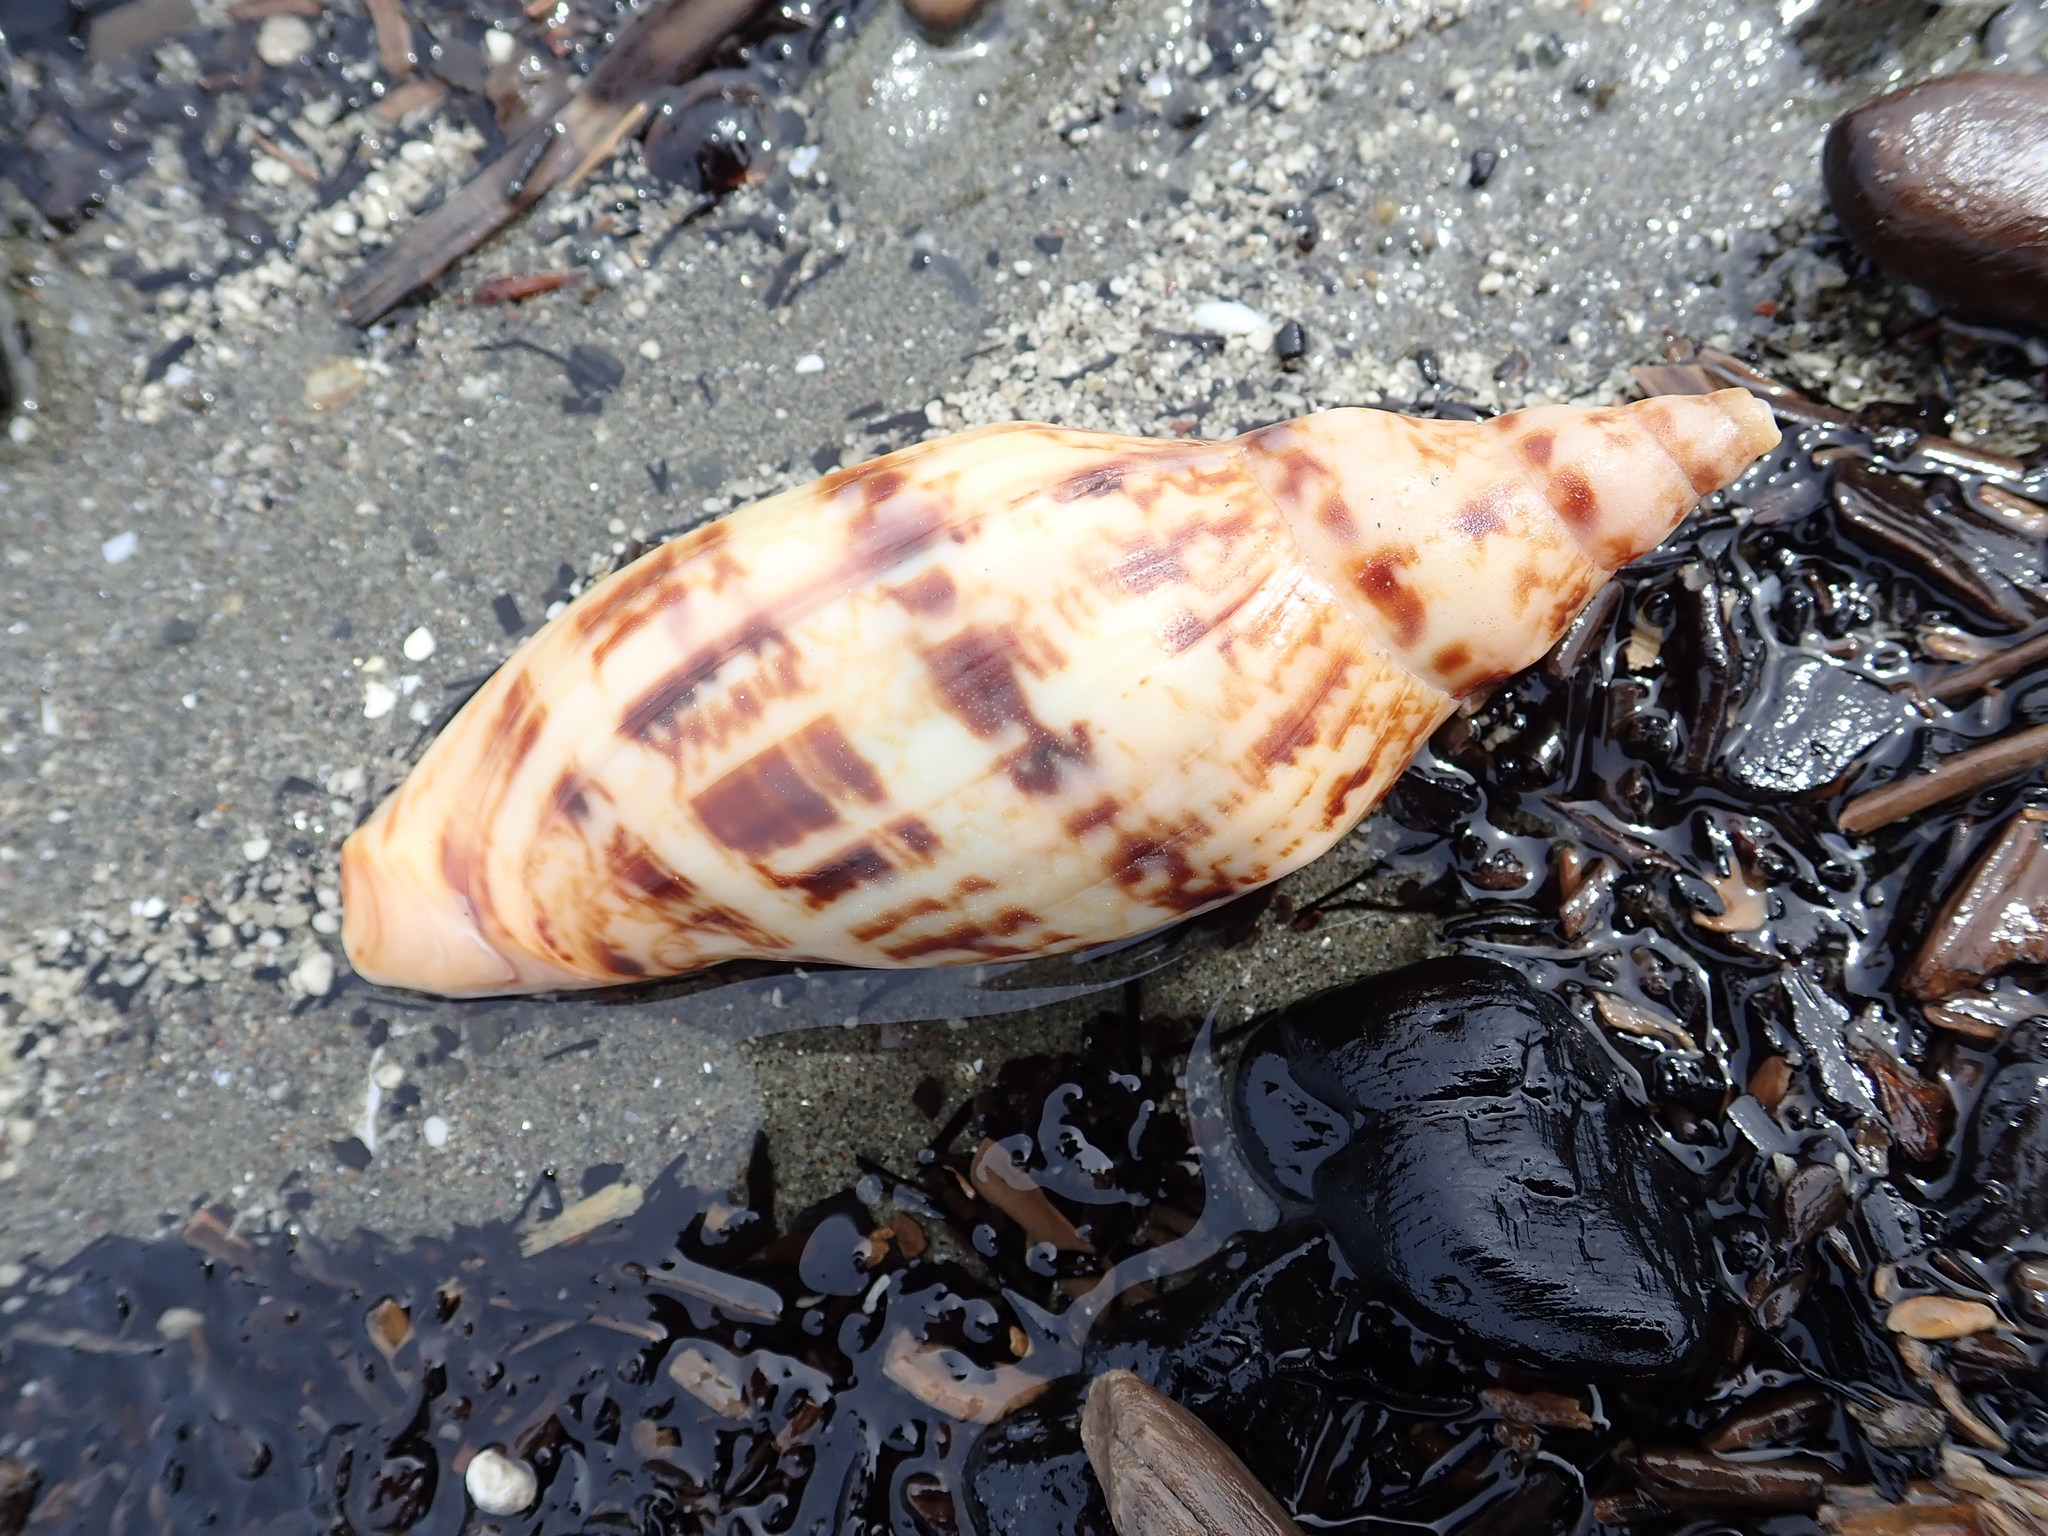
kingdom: Animalia
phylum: Mollusca
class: Gastropoda
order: Neogastropoda
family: Volutidae
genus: Alcithoe
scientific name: Alcithoe arabica
